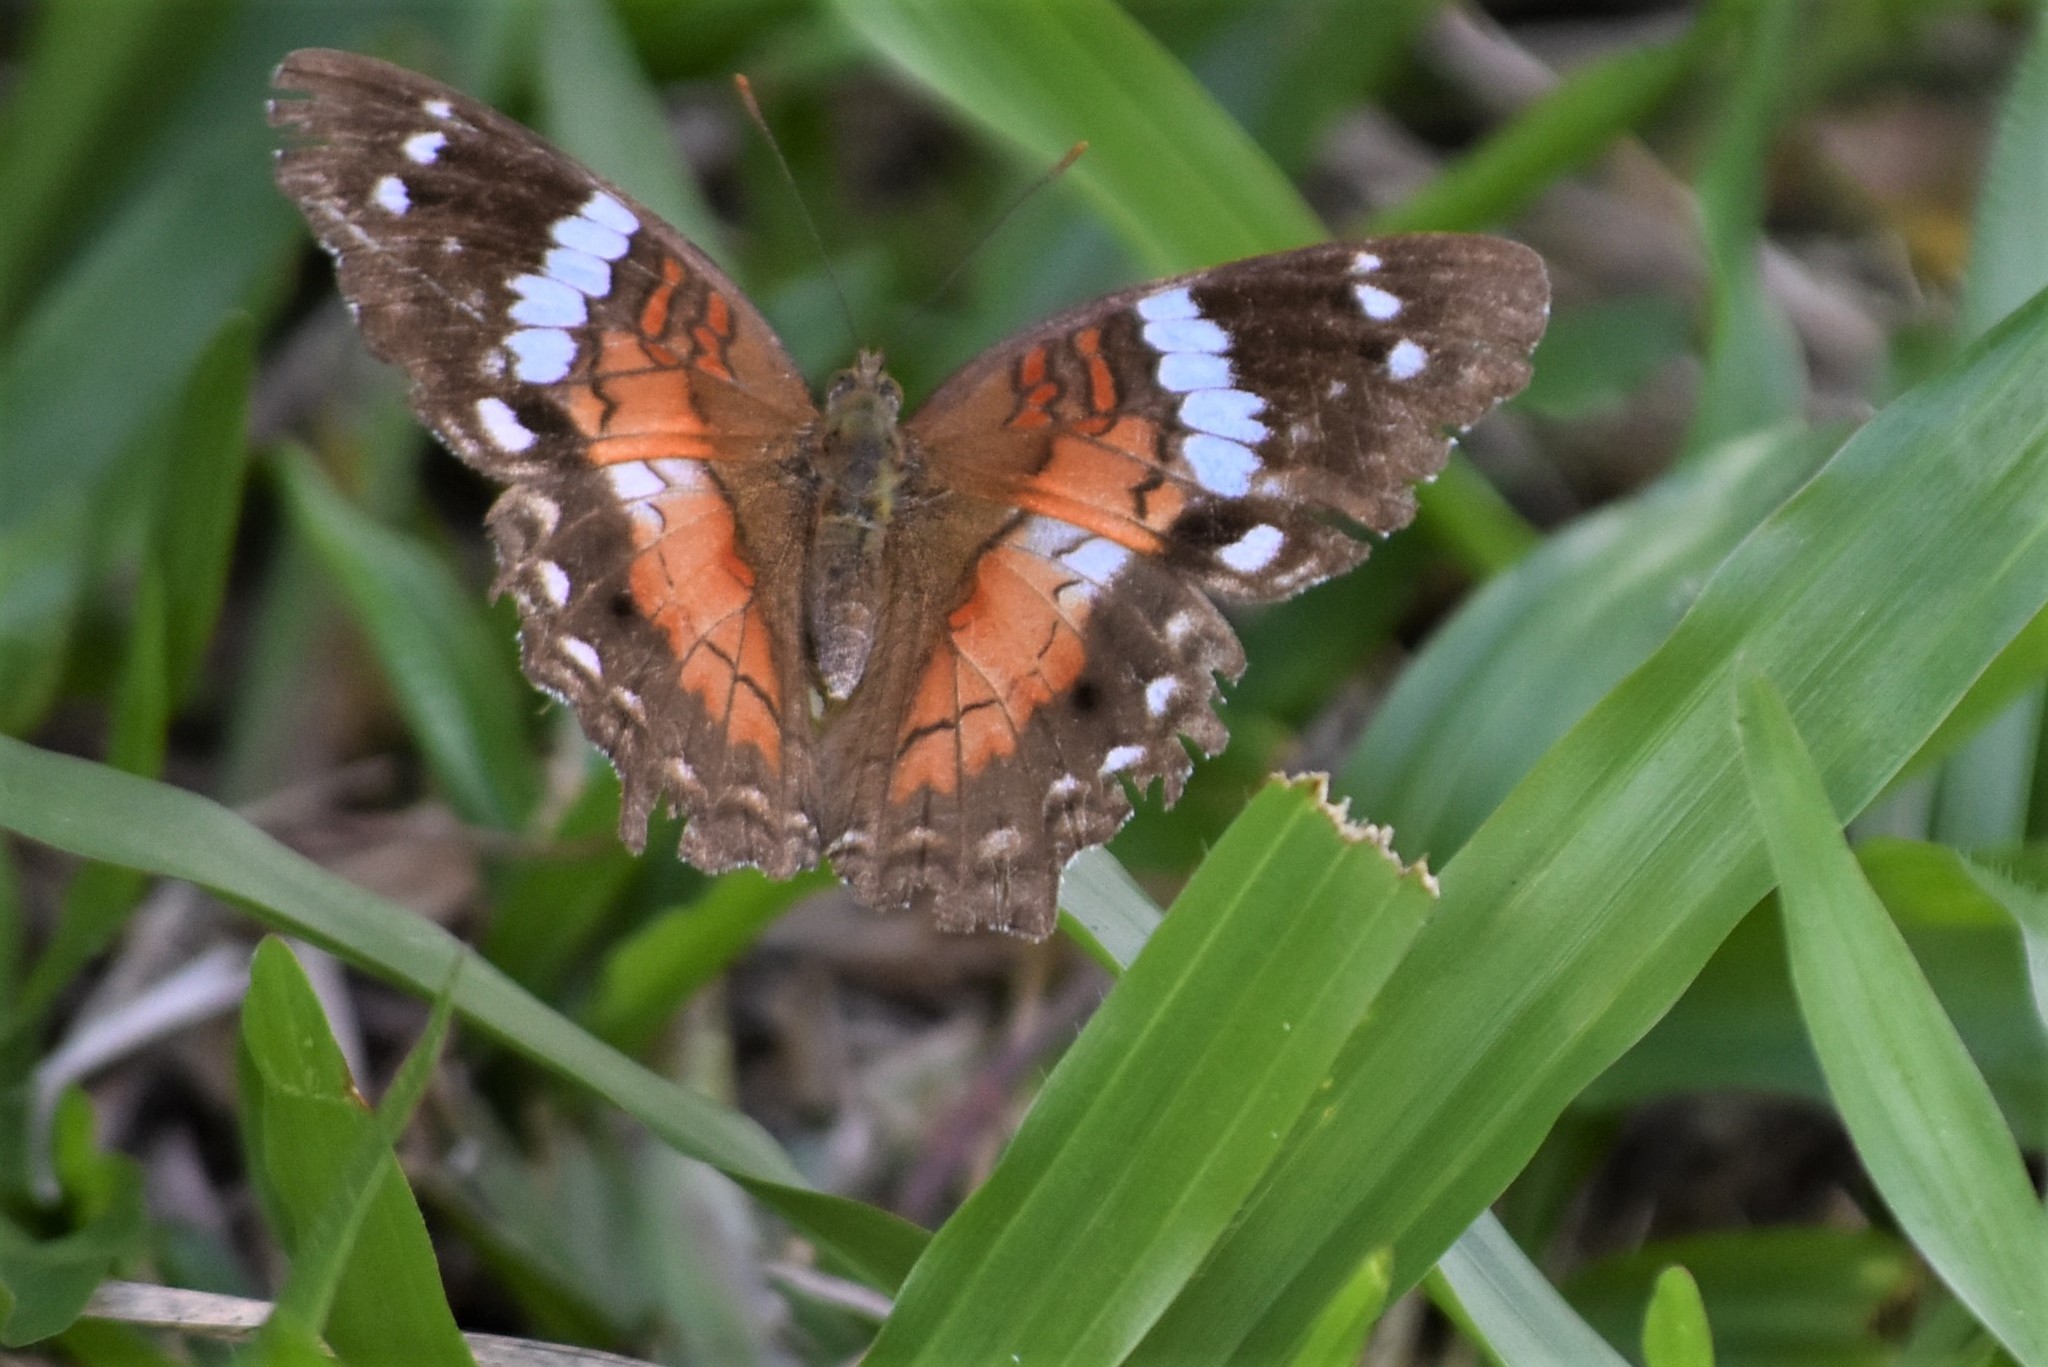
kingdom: Animalia
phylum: Arthropoda
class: Insecta
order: Lepidoptera
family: Nymphalidae
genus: Anartia
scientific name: Anartia amathea
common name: Red peacock
